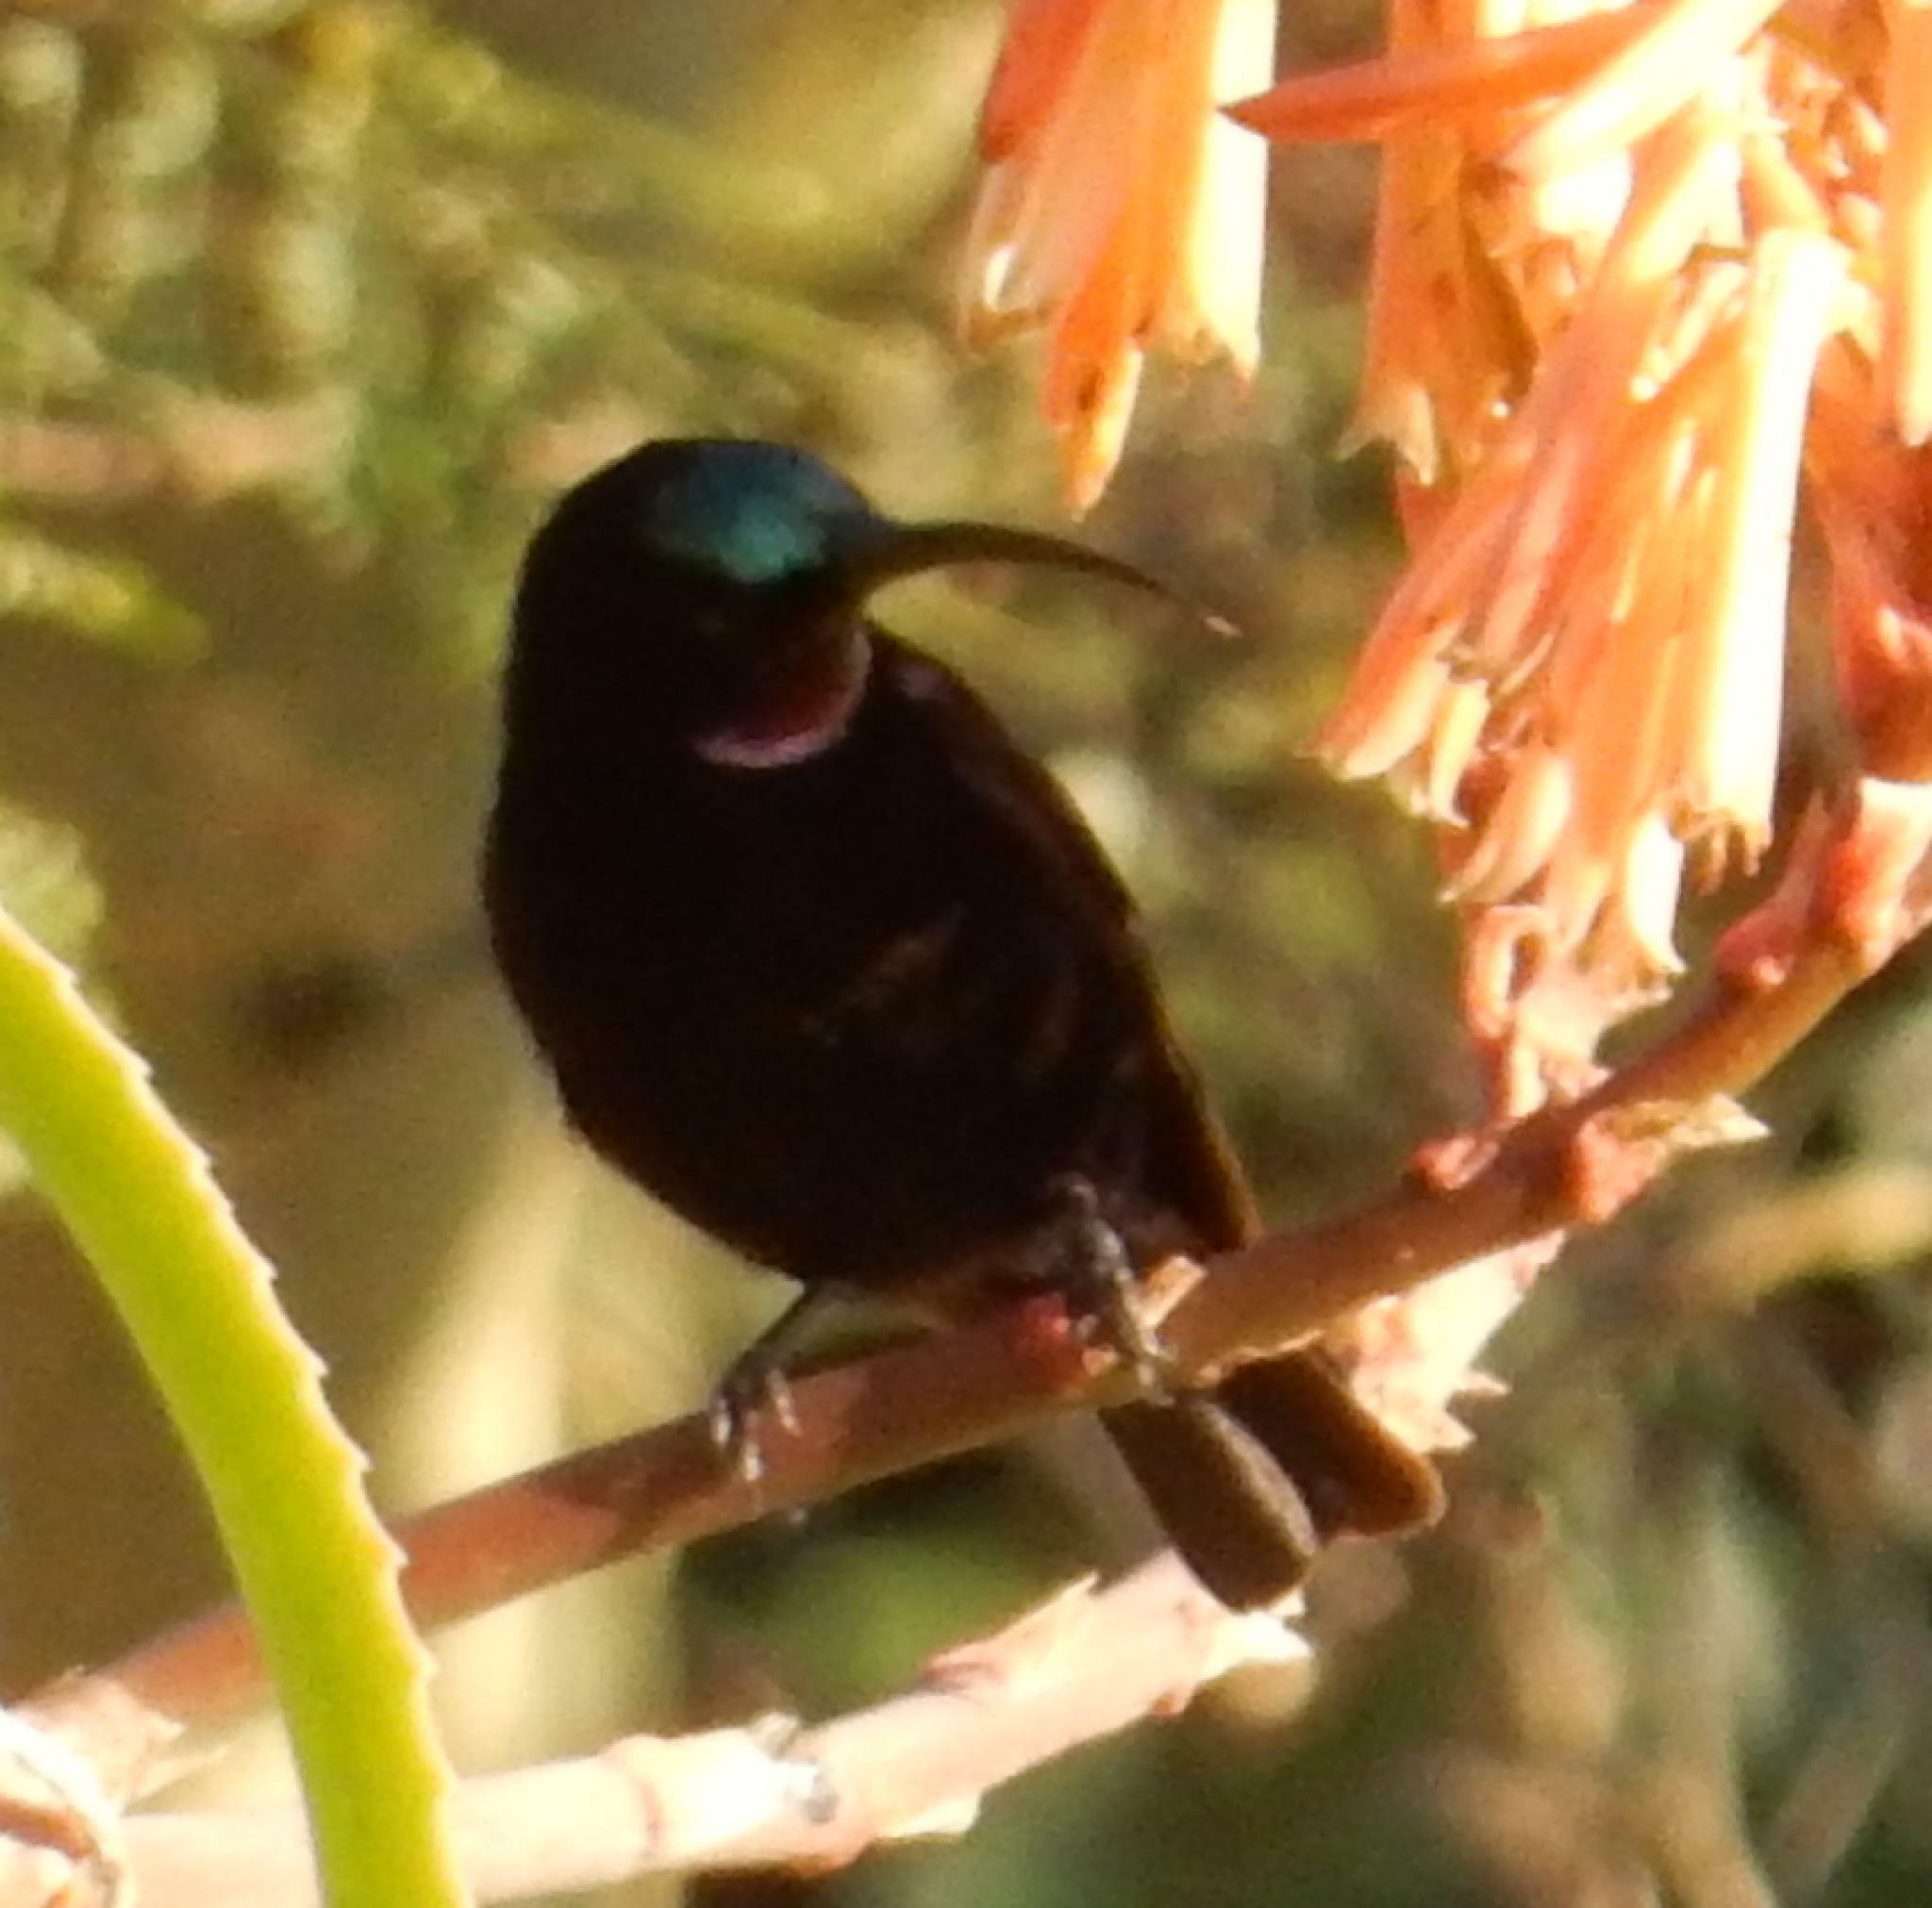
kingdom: Animalia
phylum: Chordata
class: Aves
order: Passeriformes
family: Nectariniidae
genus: Chalcomitra
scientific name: Chalcomitra amethystina
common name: Amethyst sunbird
